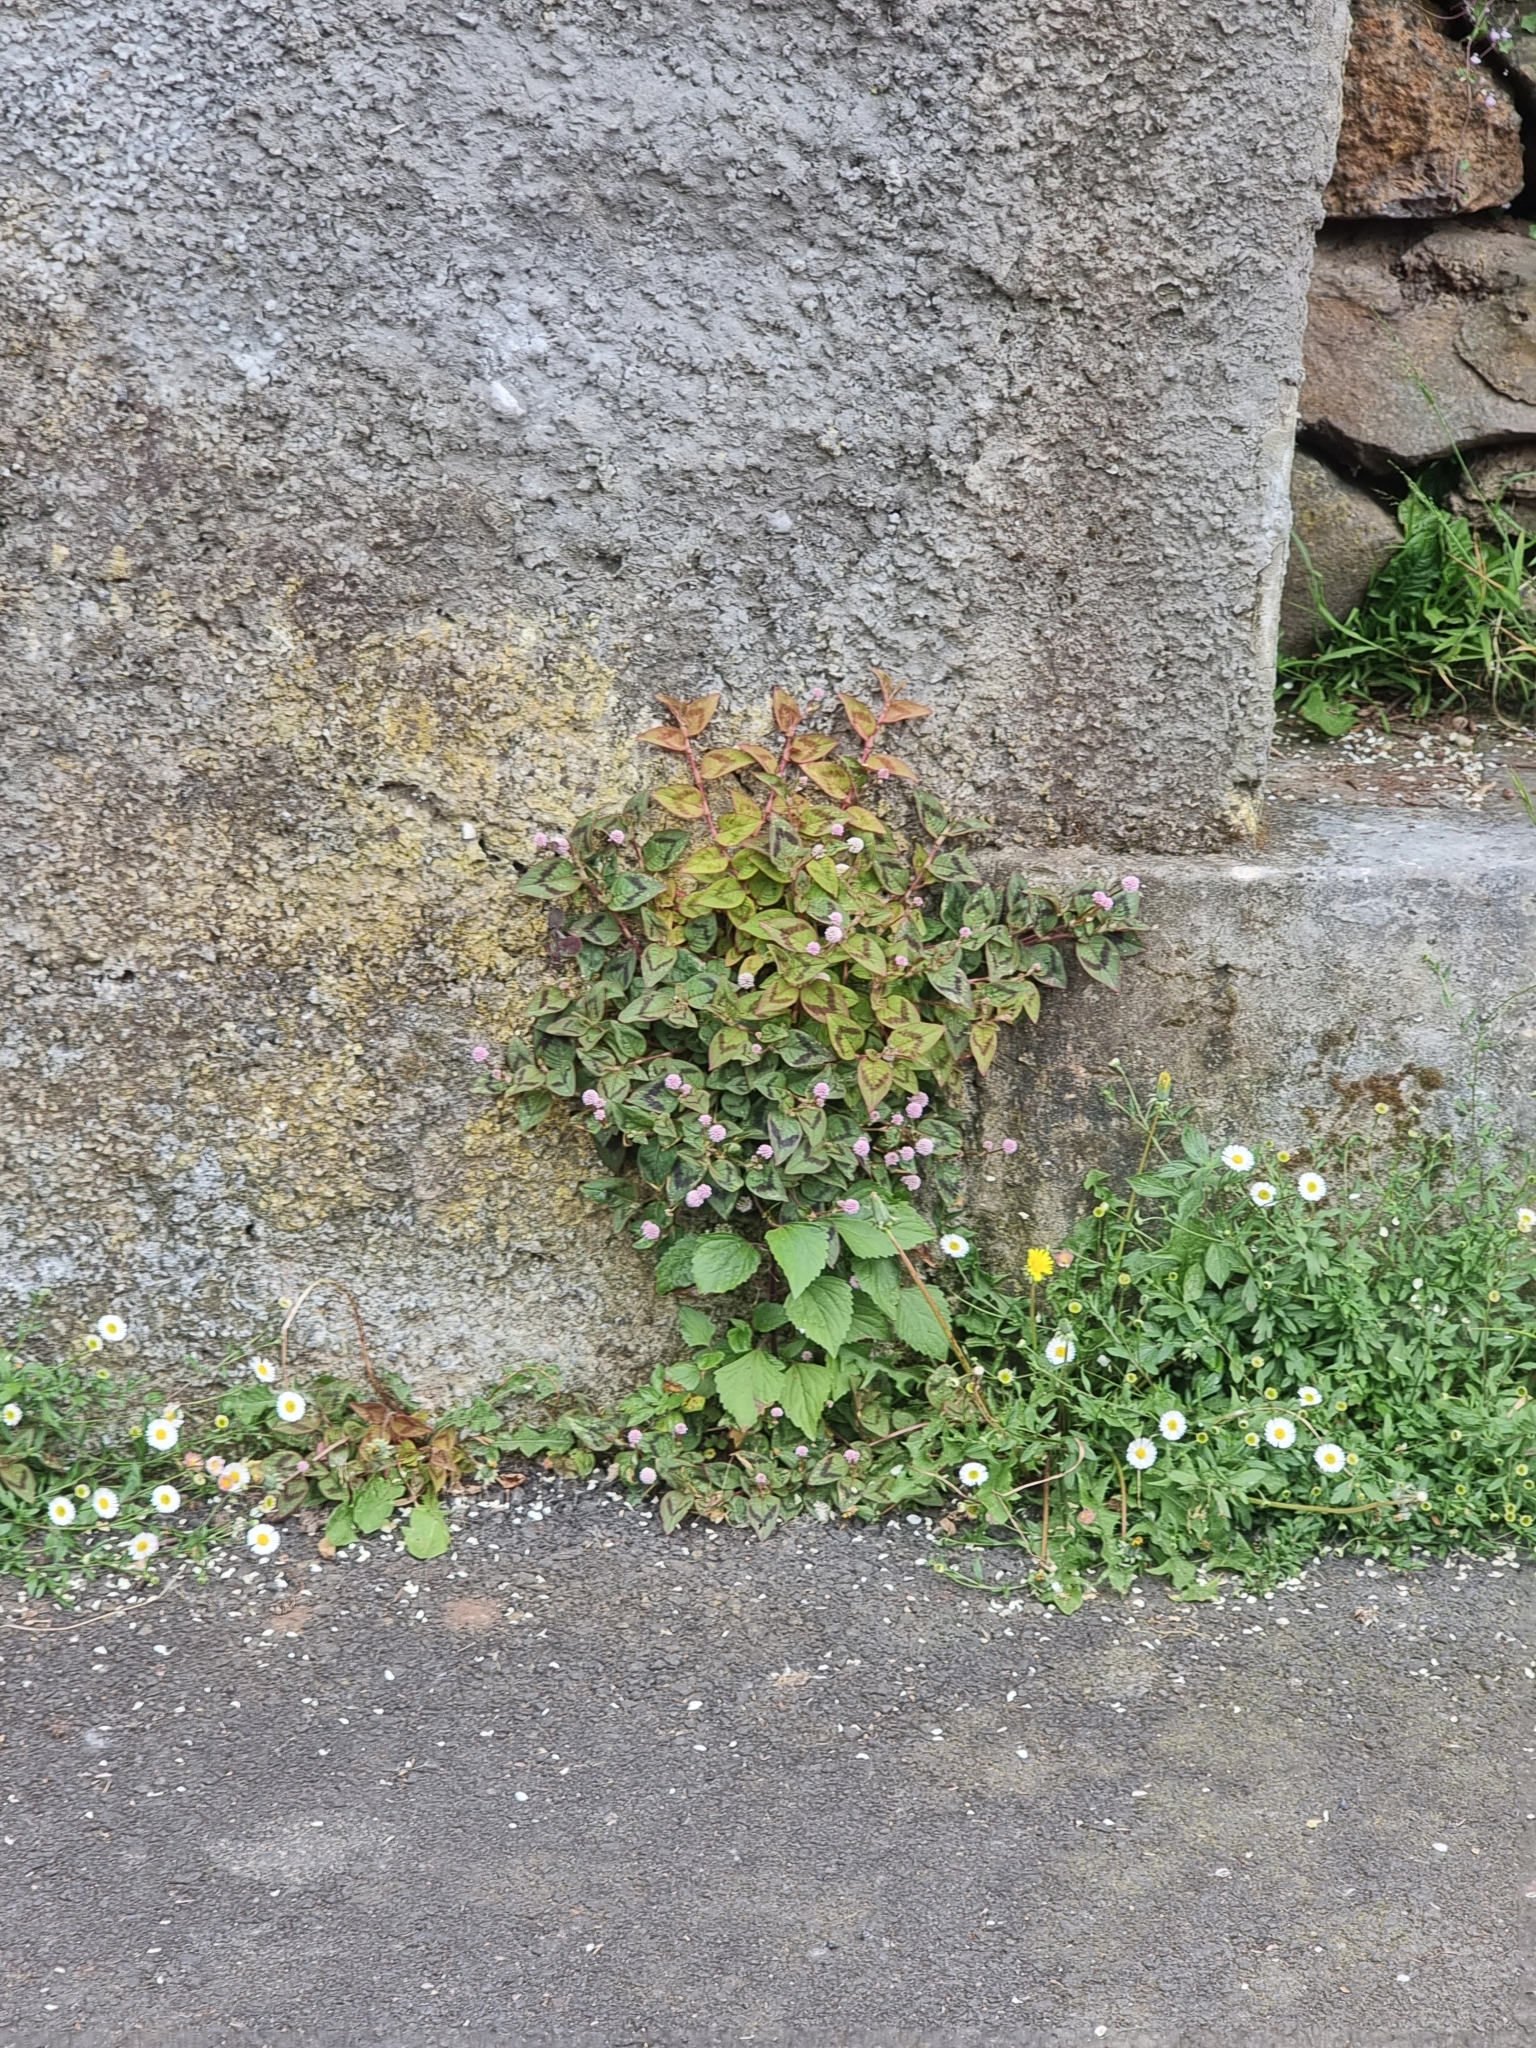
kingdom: Plantae
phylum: Tracheophyta
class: Magnoliopsida
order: Caryophyllales
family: Polygonaceae
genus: Persicaria
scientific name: Persicaria capitata
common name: Pinkhead smartweed
